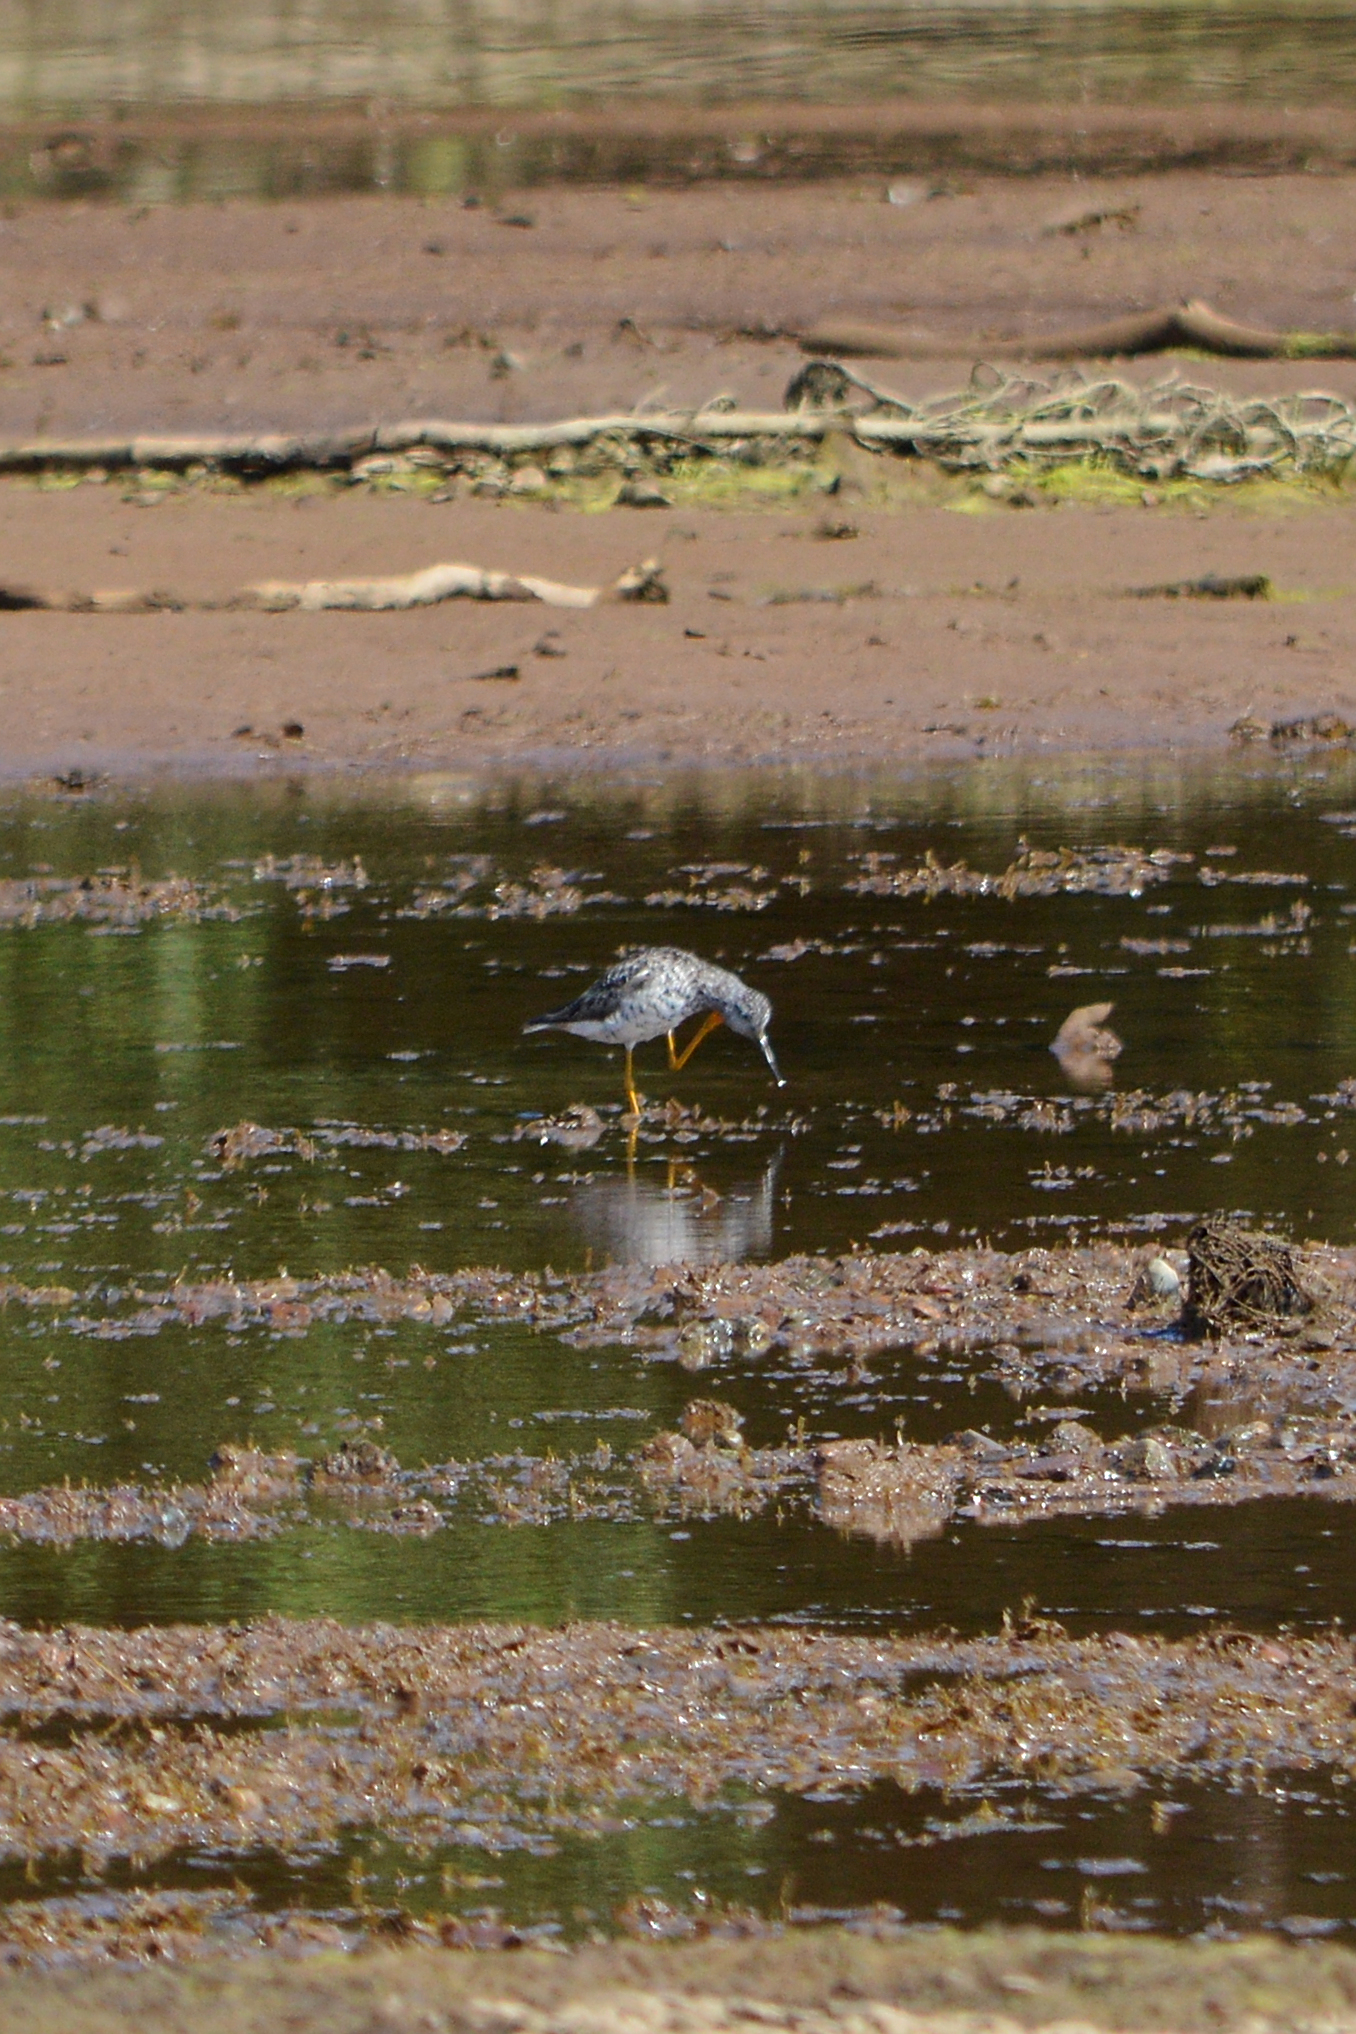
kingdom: Animalia
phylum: Chordata
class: Aves
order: Charadriiformes
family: Scolopacidae
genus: Tringa
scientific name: Tringa melanoleuca
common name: Greater yellowlegs
